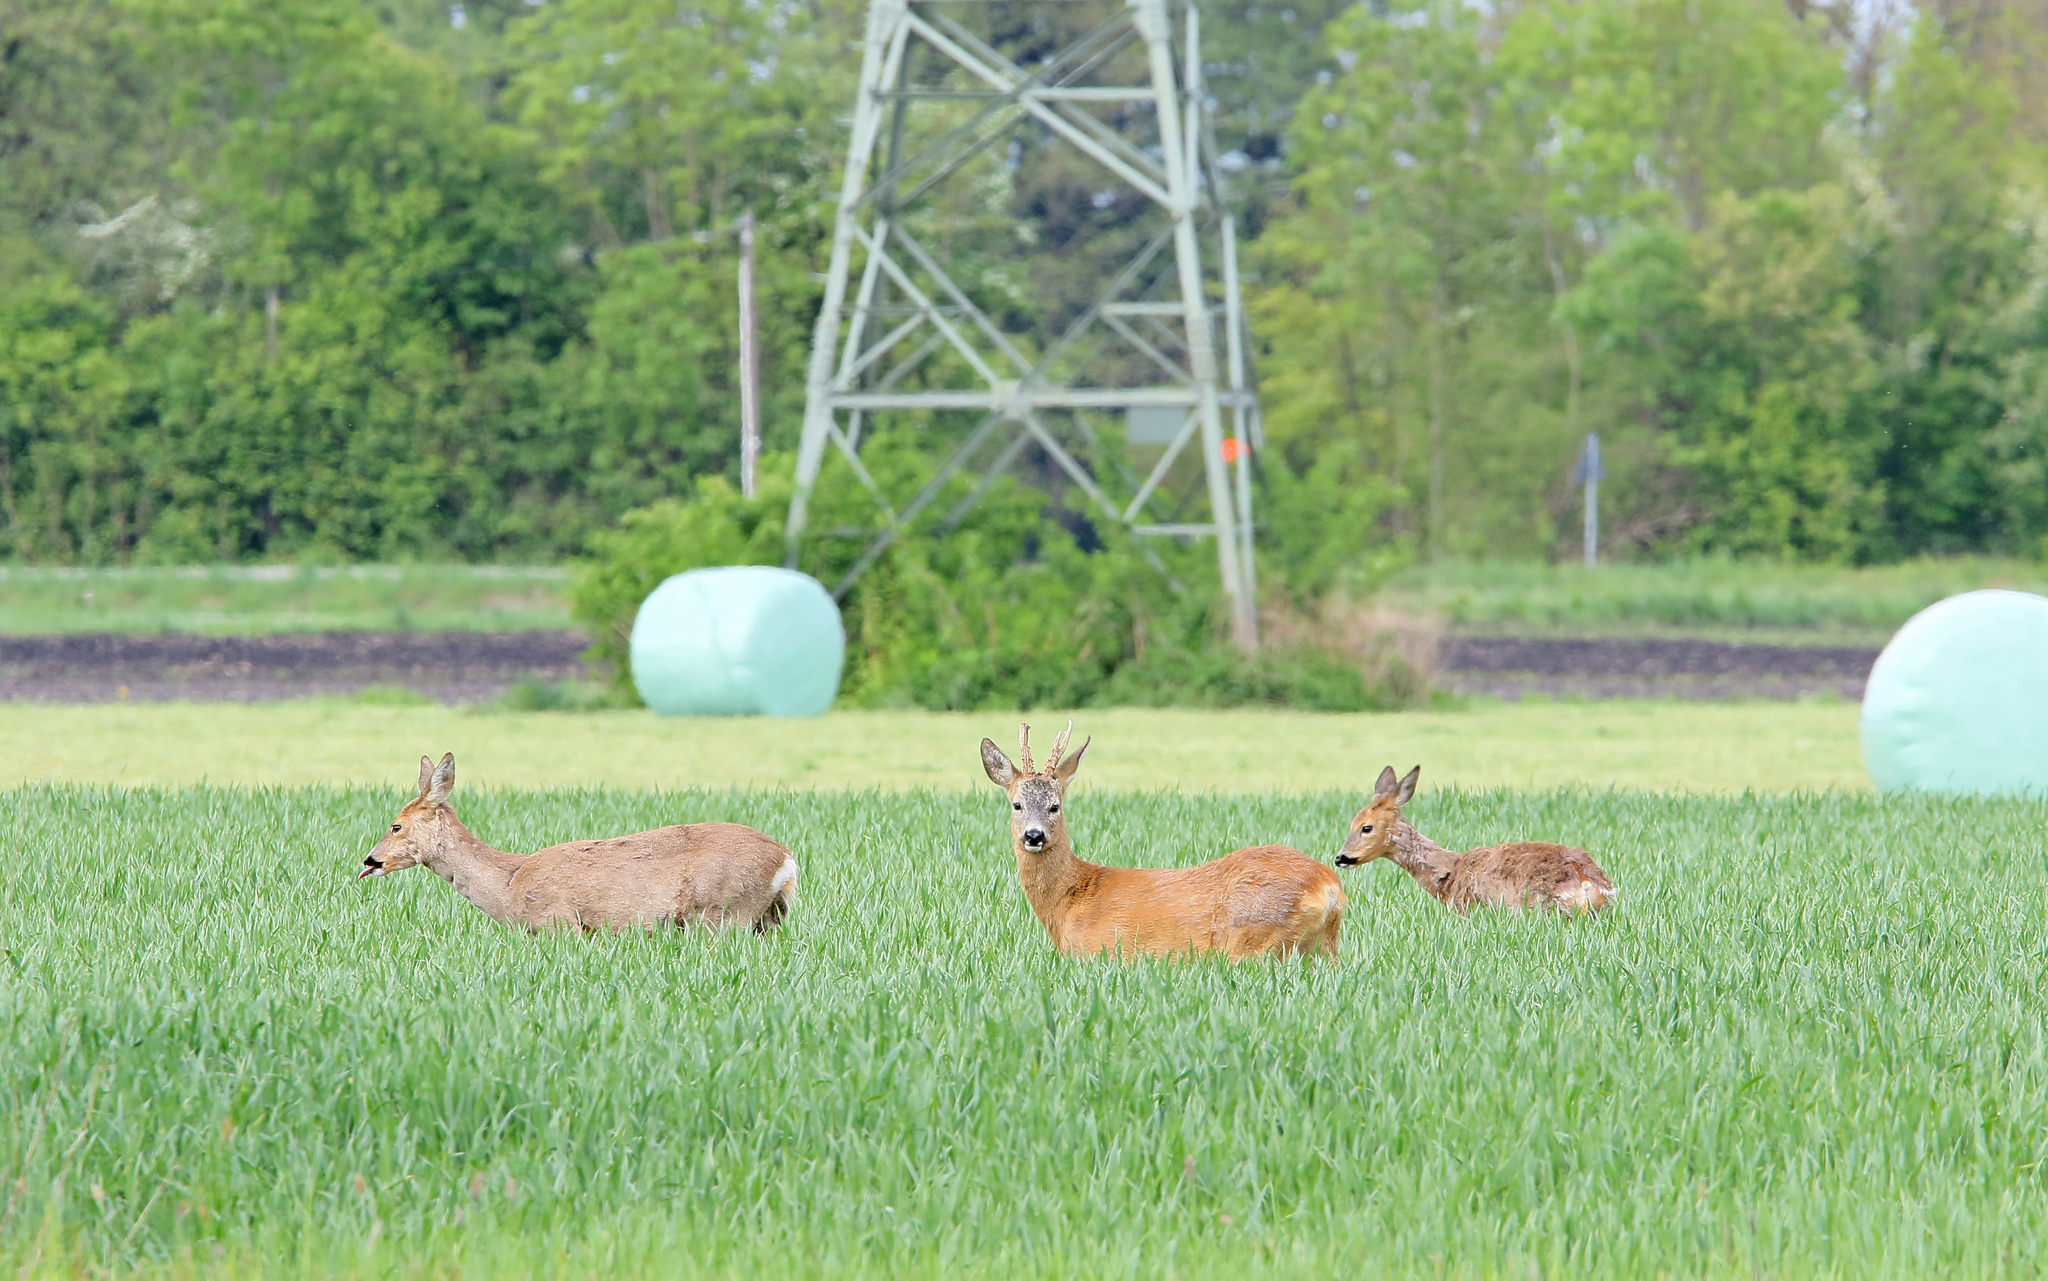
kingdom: Animalia
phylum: Chordata
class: Mammalia
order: Artiodactyla
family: Cervidae
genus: Capreolus
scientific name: Capreolus capreolus
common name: Western roe deer
